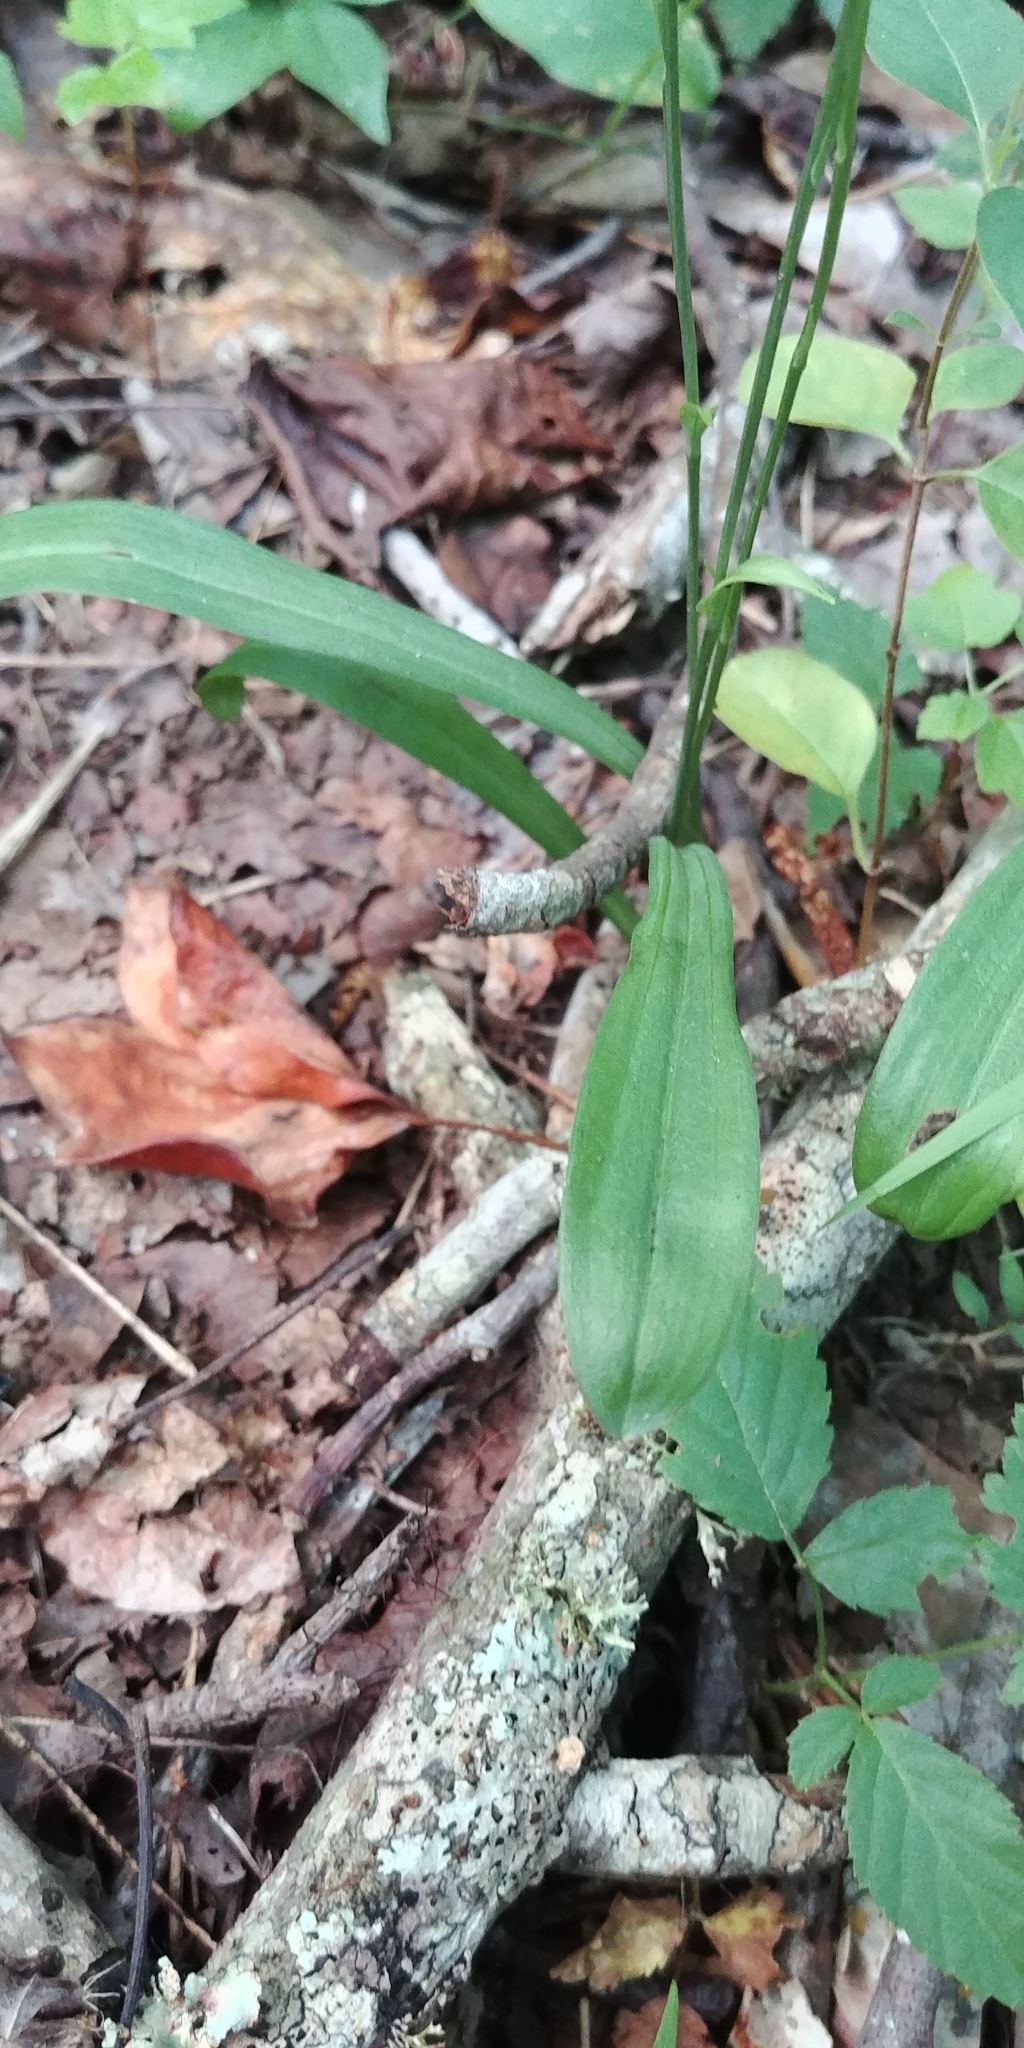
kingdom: Plantae
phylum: Tracheophyta
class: Liliopsida
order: Asparagales
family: Orchidaceae
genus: Platanthera
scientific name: Platanthera clavellata
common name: Club-spur orchid
